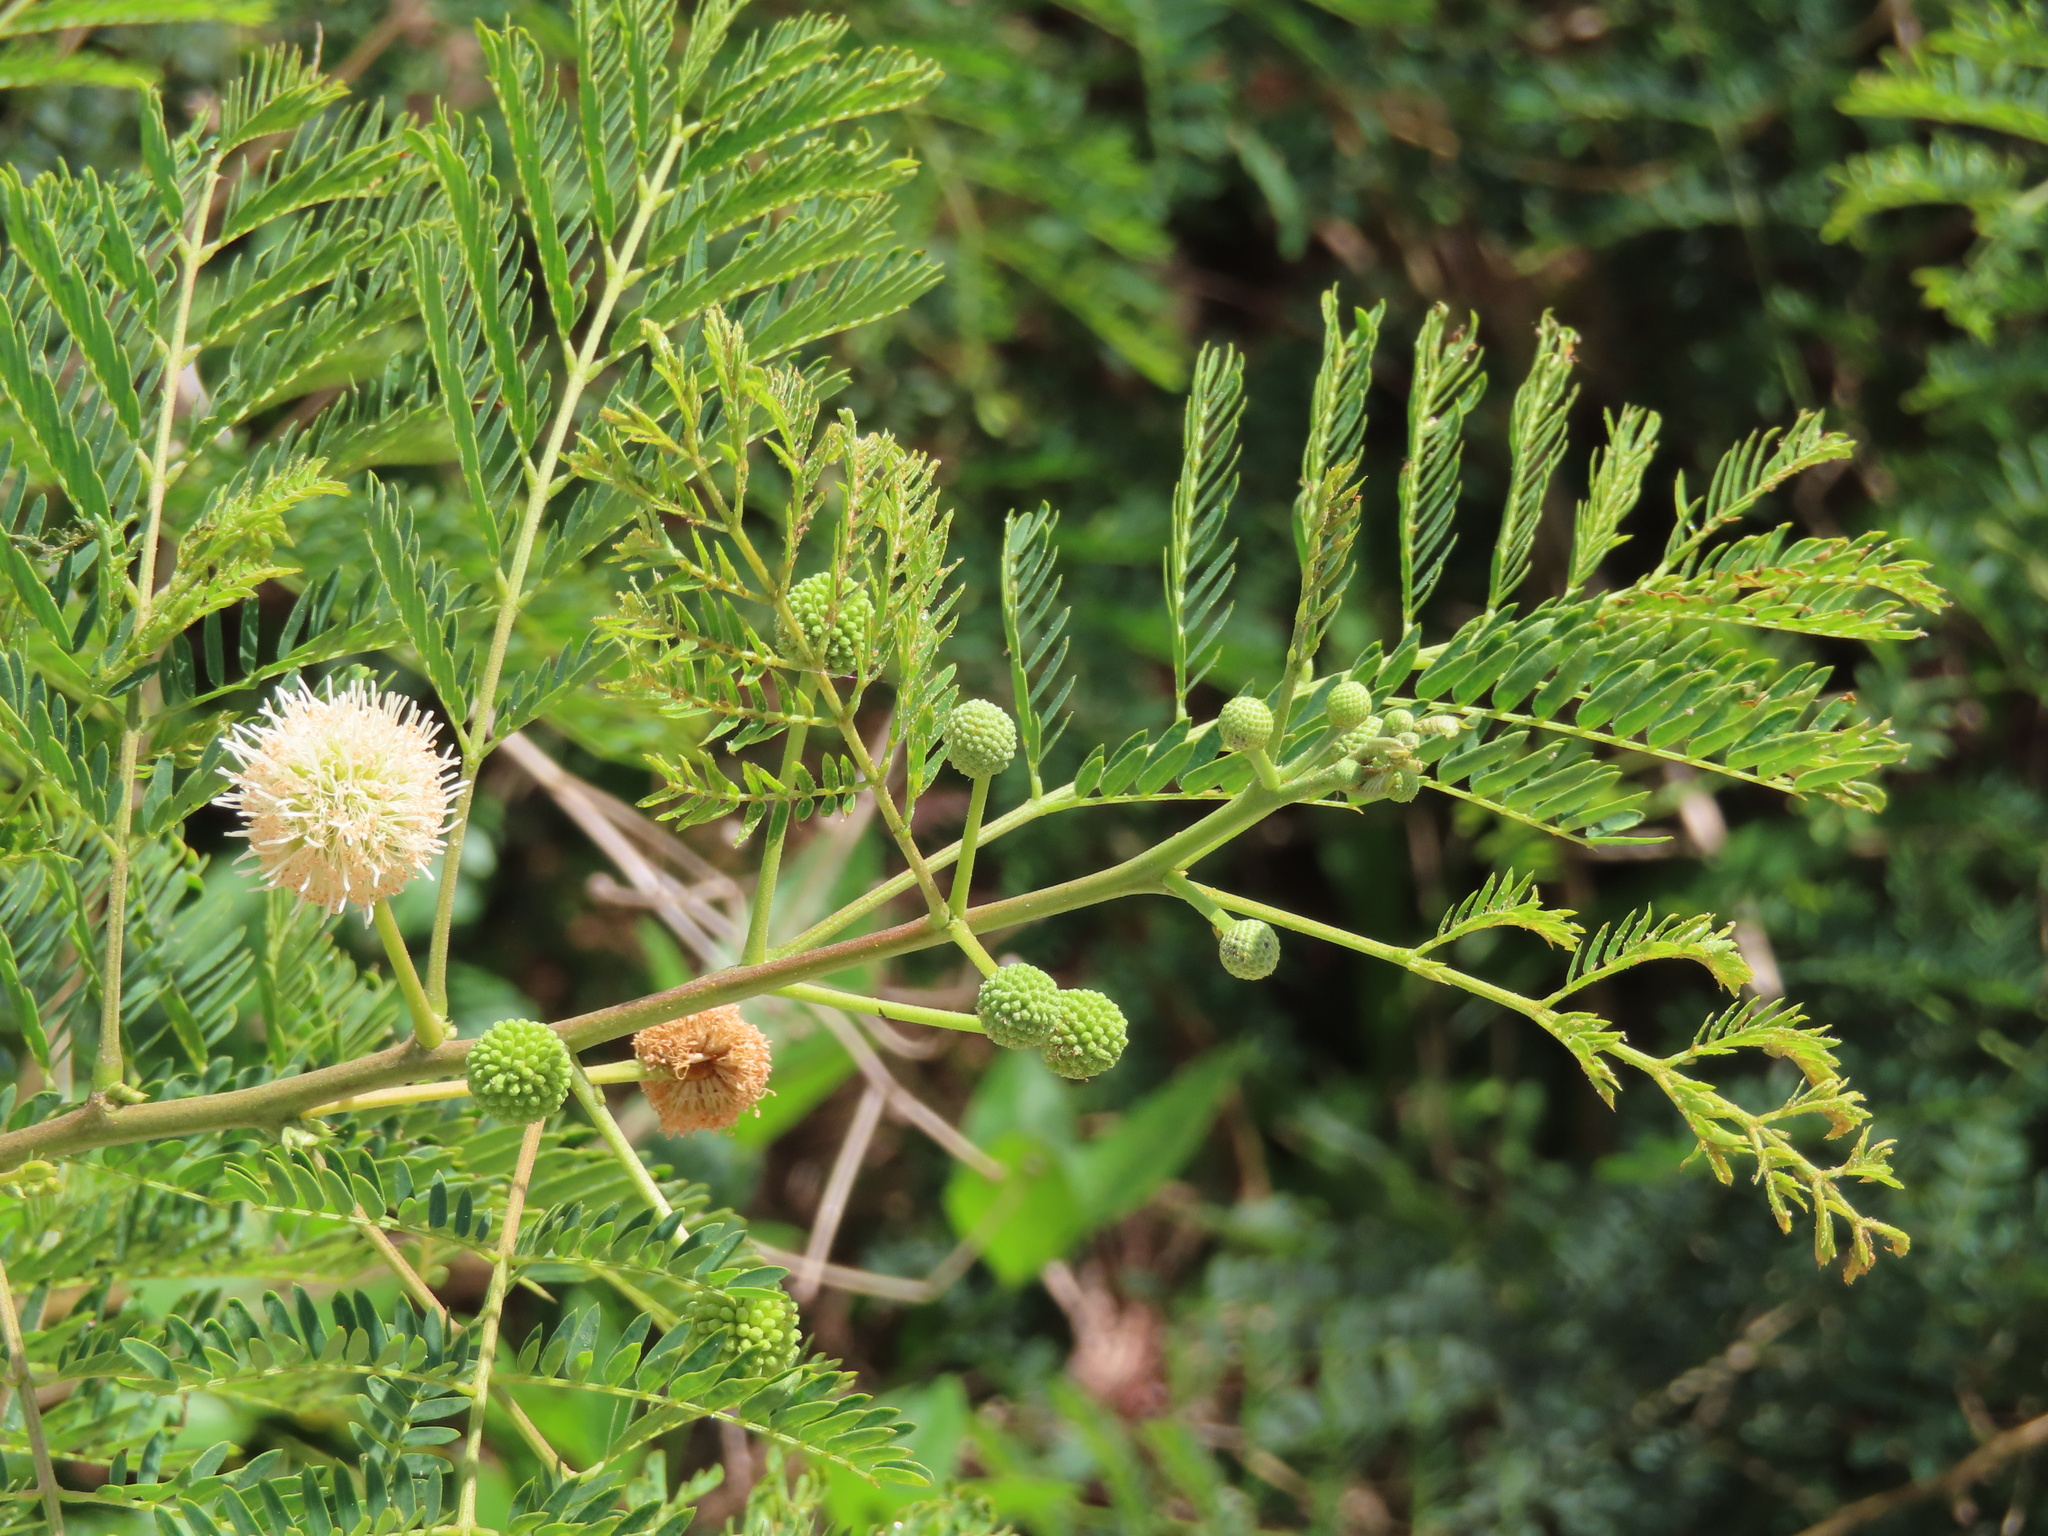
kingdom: Plantae
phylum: Tracheophyta
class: Magnoliopsida
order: Fabales
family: Fabaceae
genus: Leucaena
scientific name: Leucaena leucocephala
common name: White leadtree
